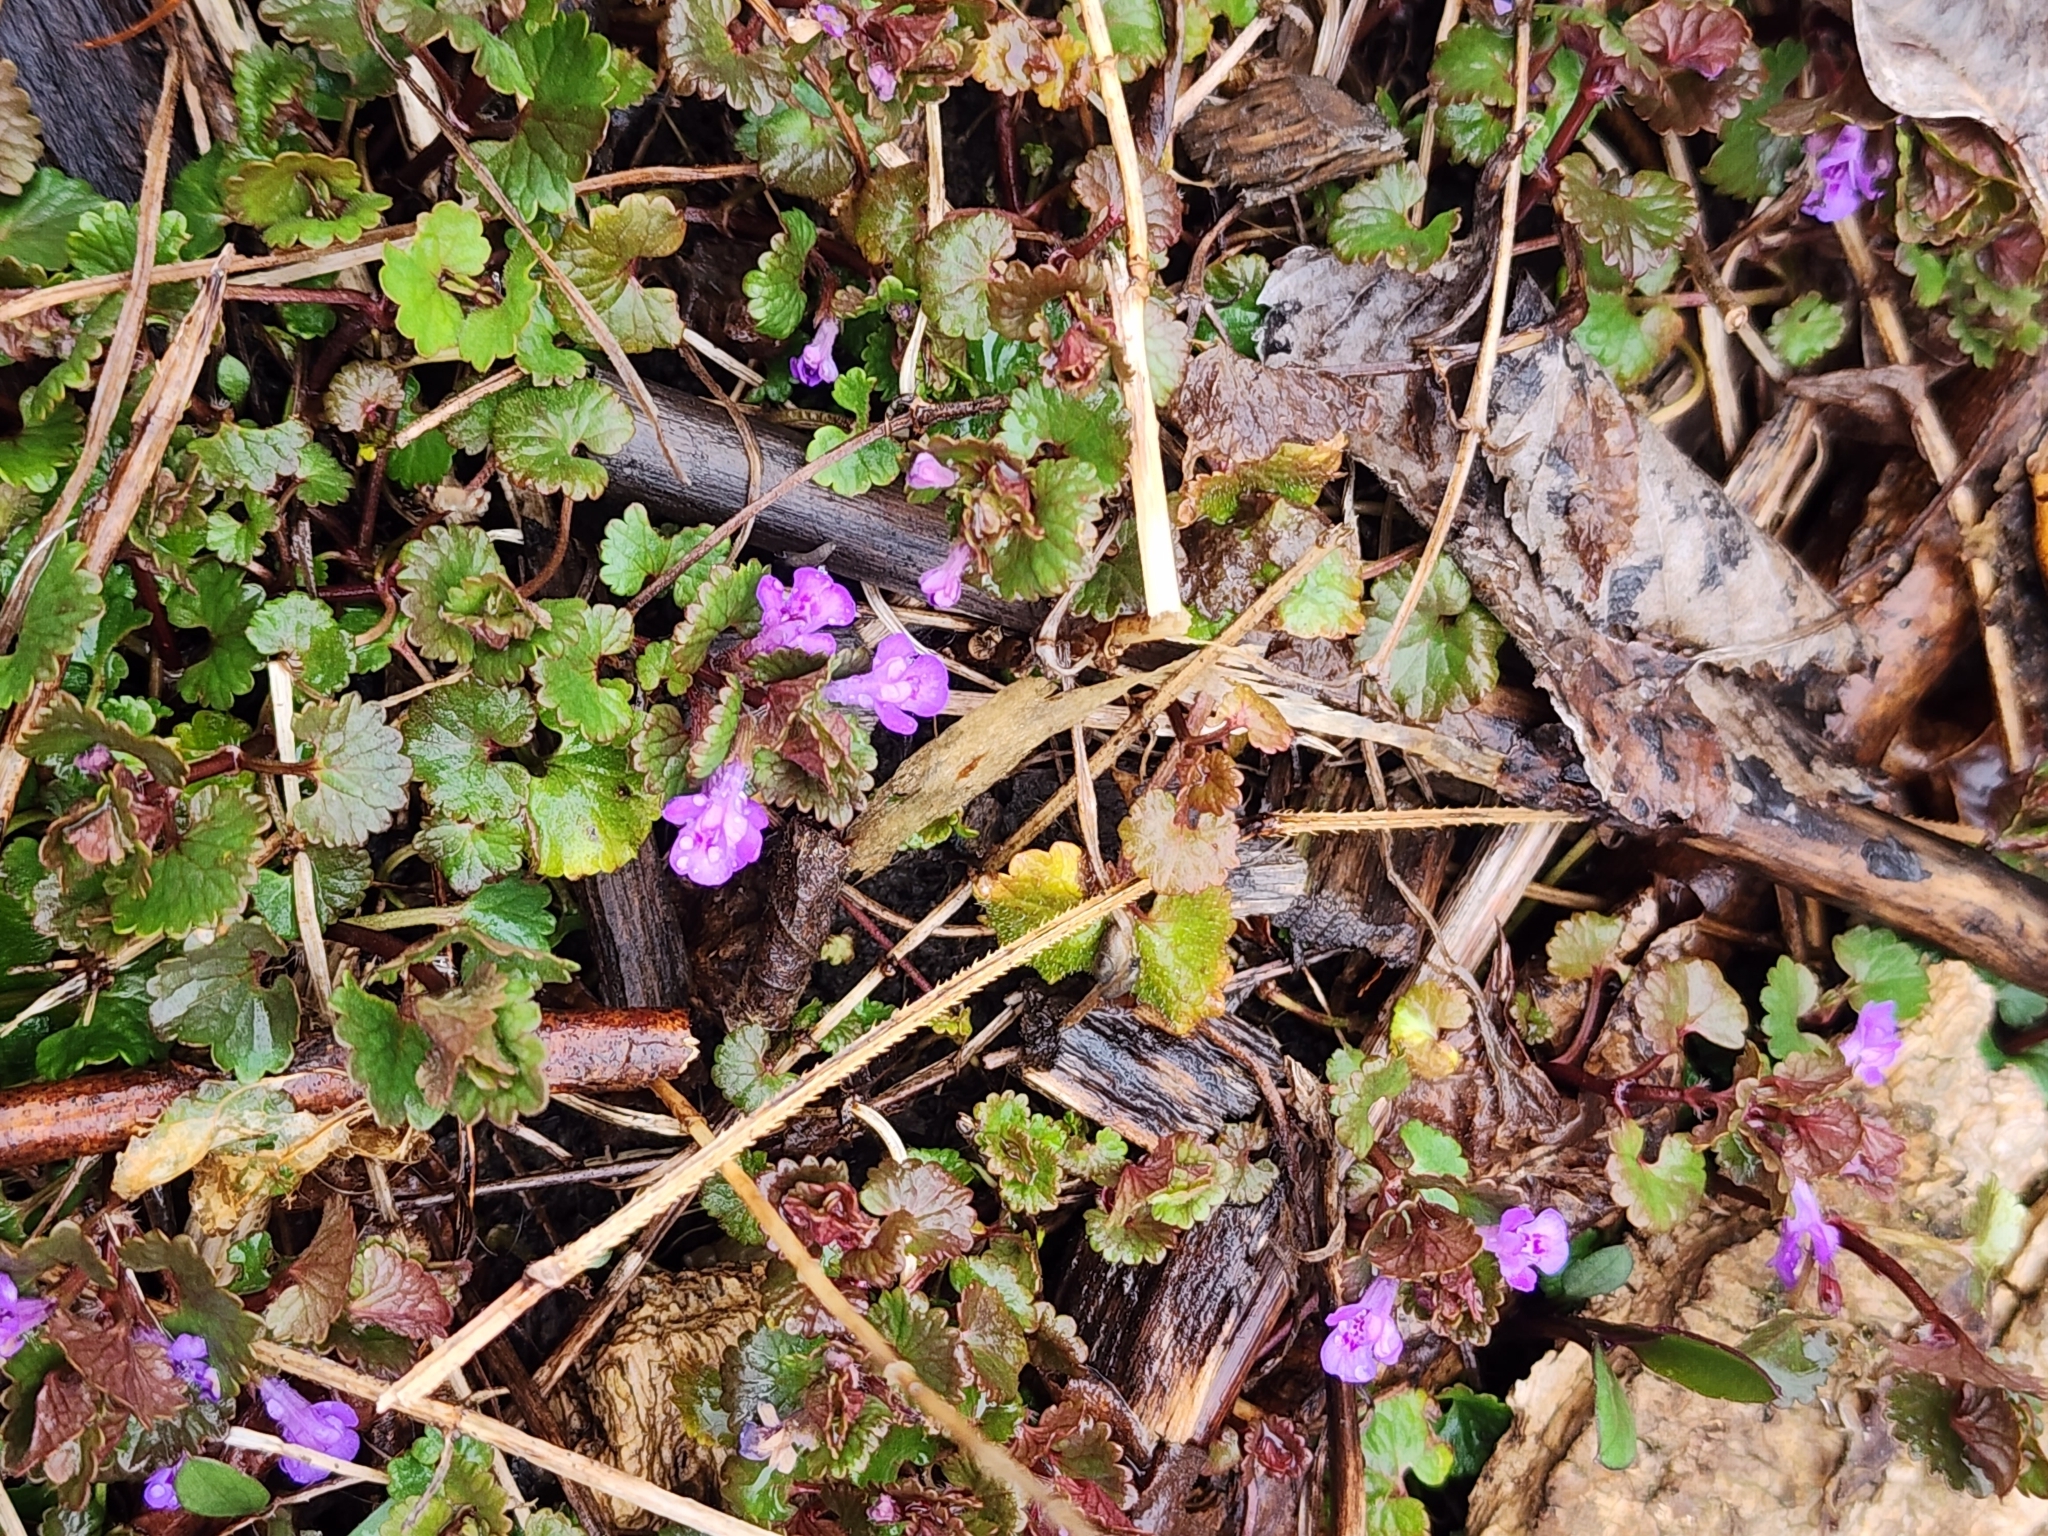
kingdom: Plantae
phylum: Tracheophyta
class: Magnoliopsida
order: Lamiales
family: Lamiaceae
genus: Glechoma
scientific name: Glechoma hederacea
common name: Ground ivy
